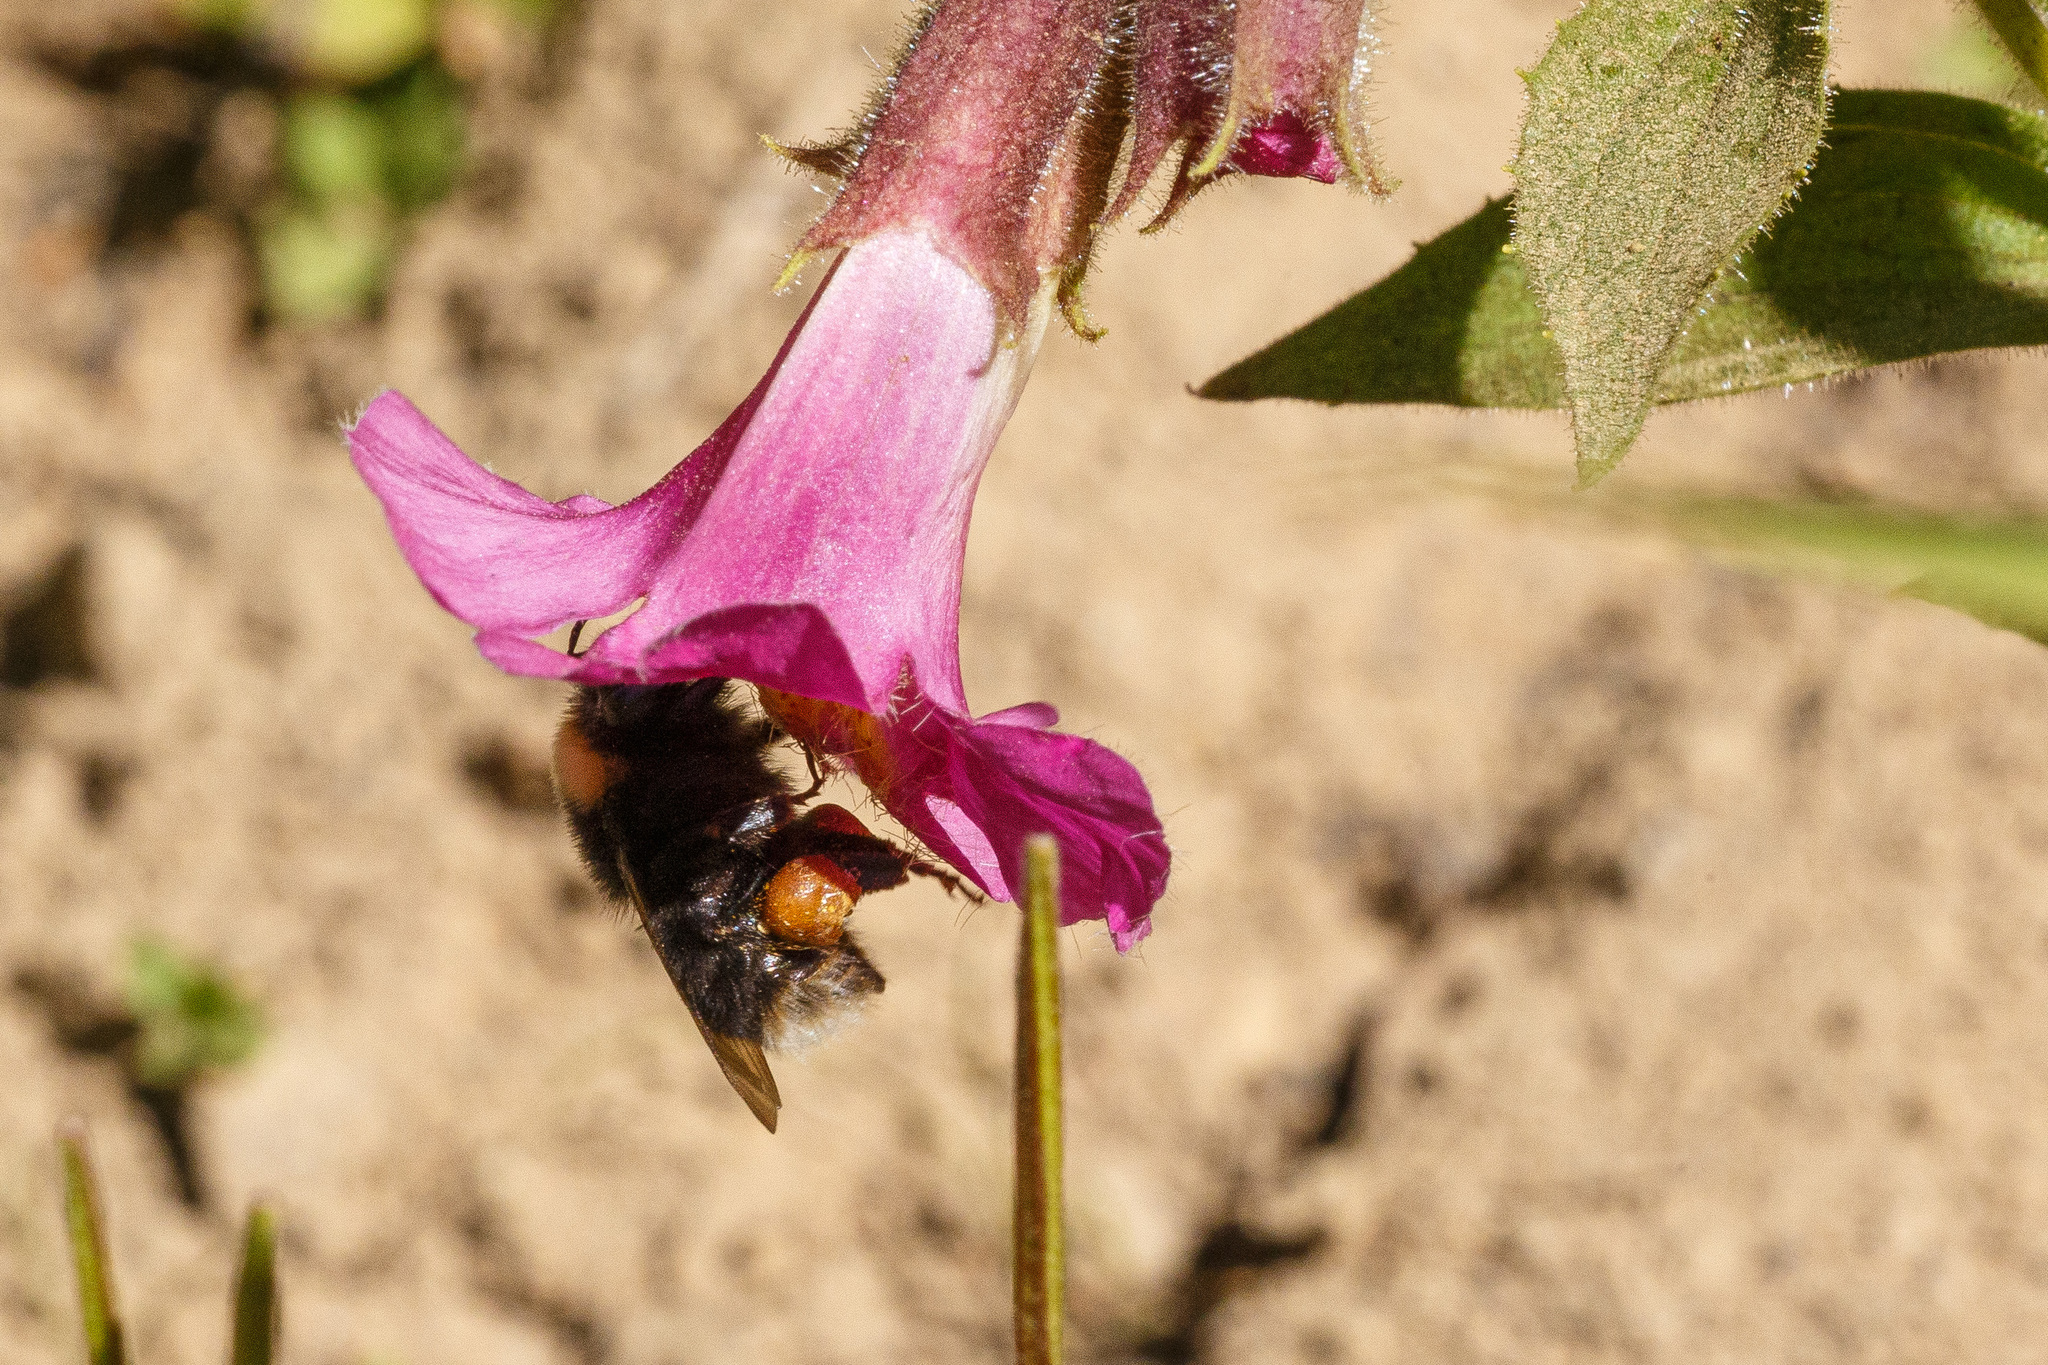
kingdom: Animalia
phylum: Arthropoda
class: Insecta
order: Hymenoptera
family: Apidae
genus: Bombus
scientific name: Bombus occidentalis
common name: Western bumble bee
